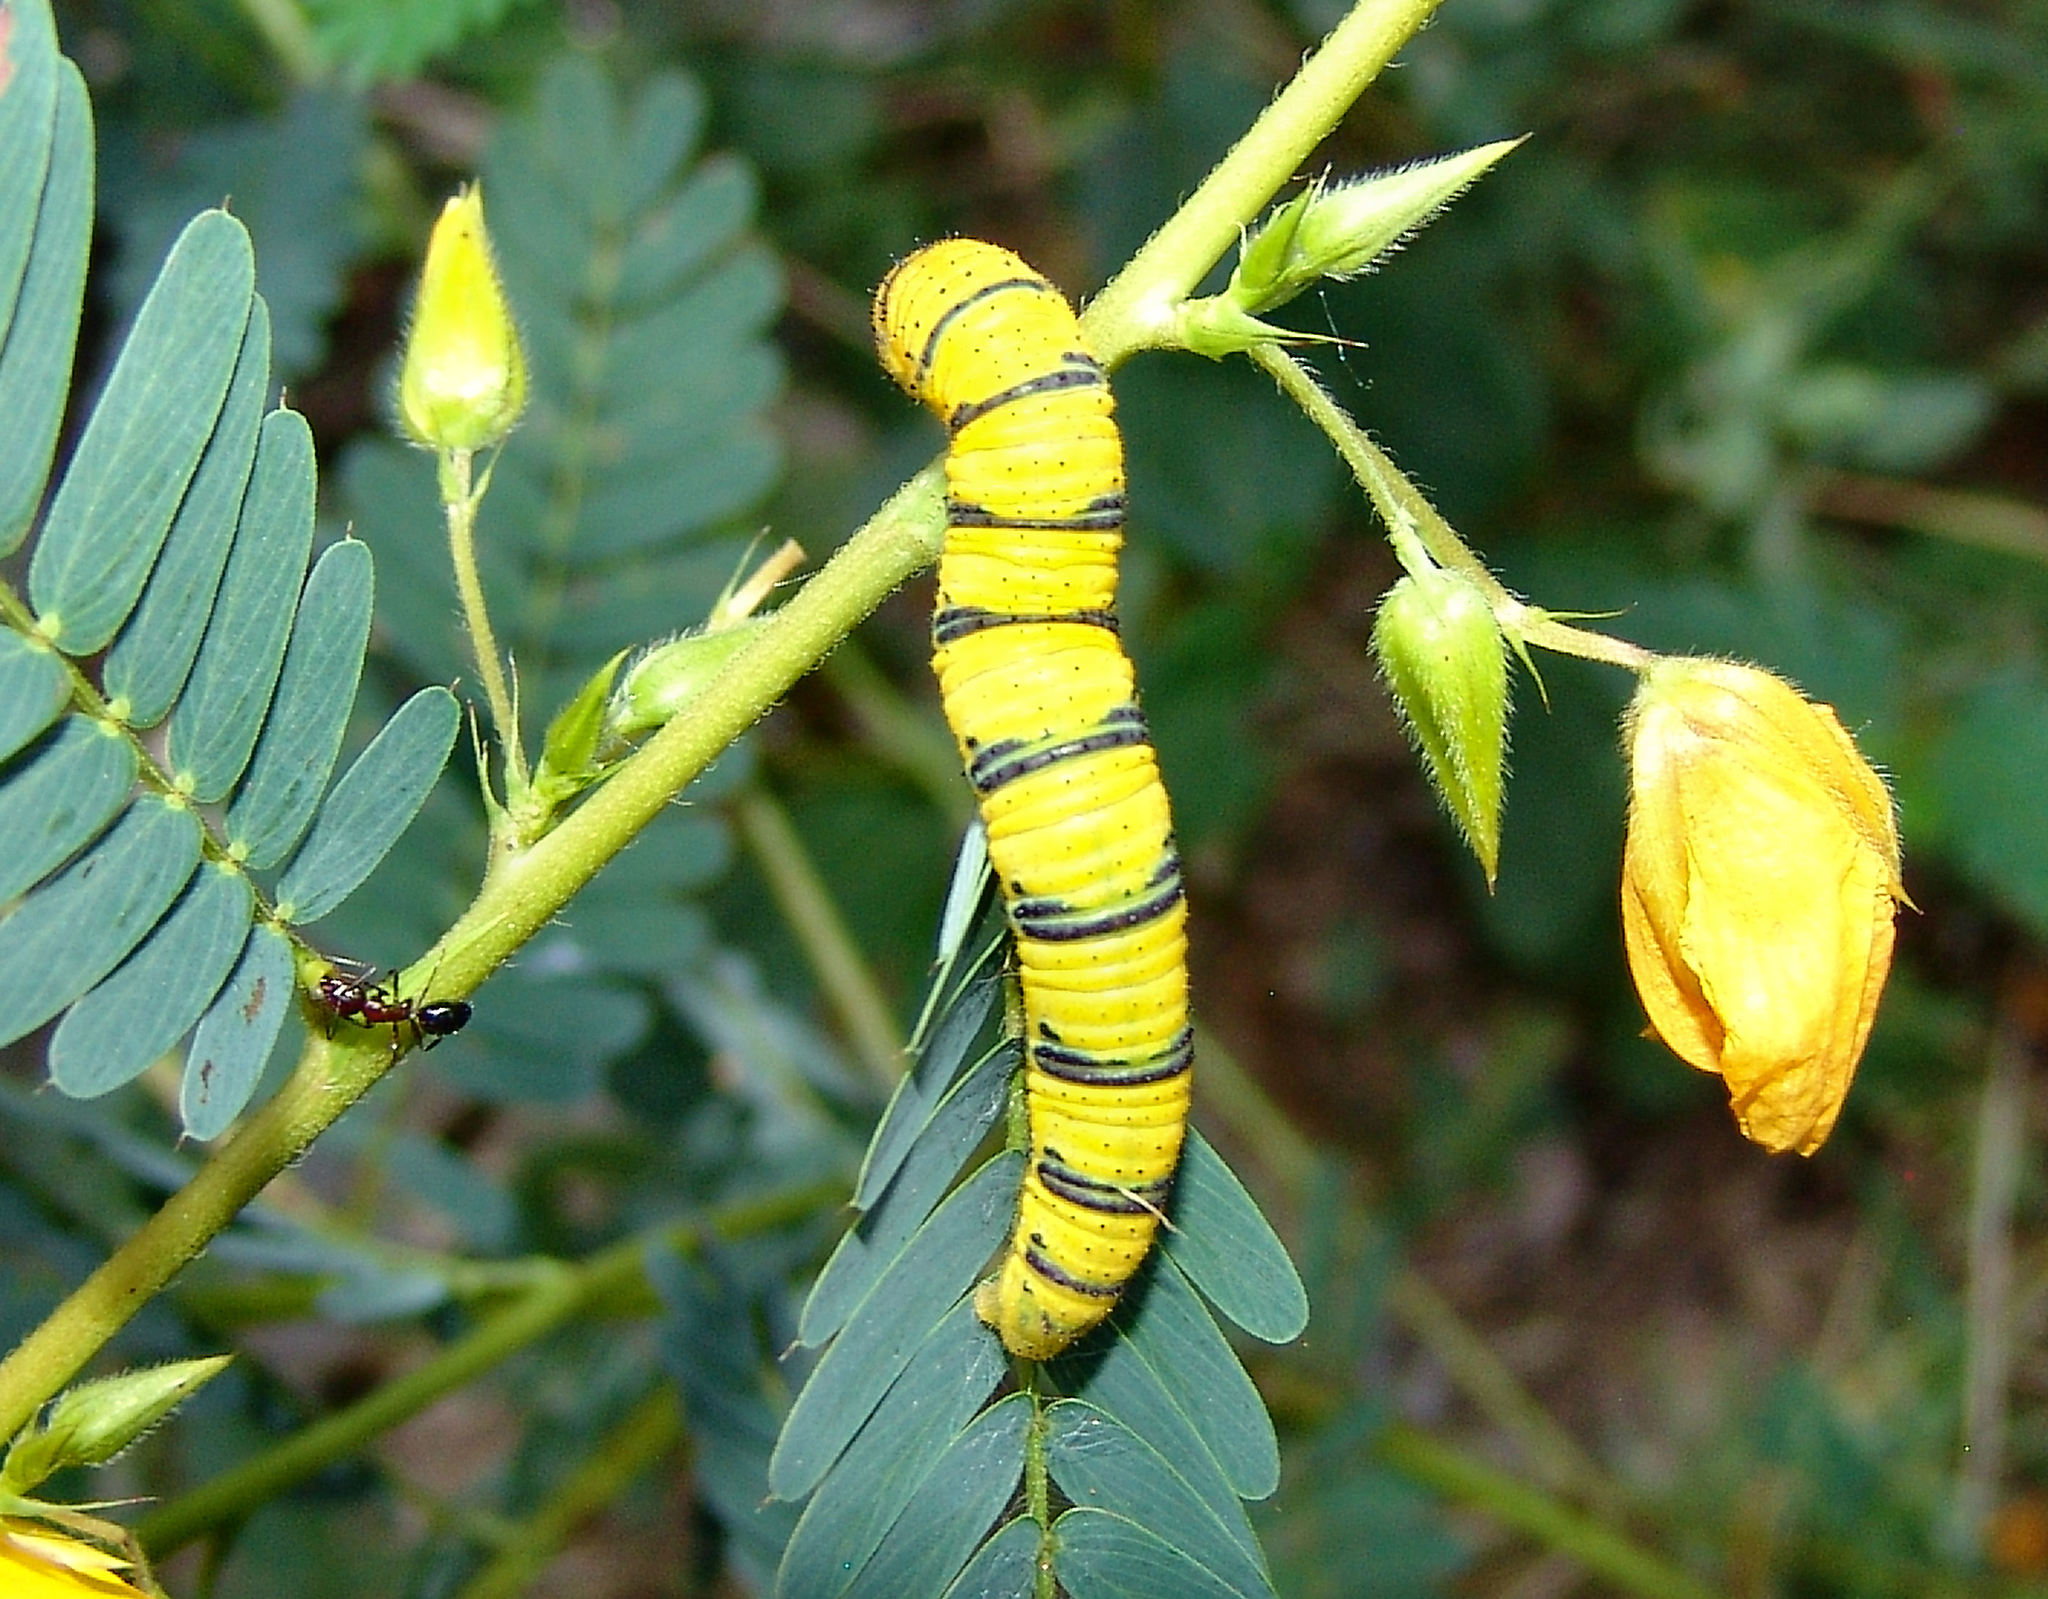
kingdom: Animalia
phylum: Arthropoda
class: Insecta
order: Lepidoptera
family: Pieridae
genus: Phoebis
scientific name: Phoebis sennae
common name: Cloudless sulphur
